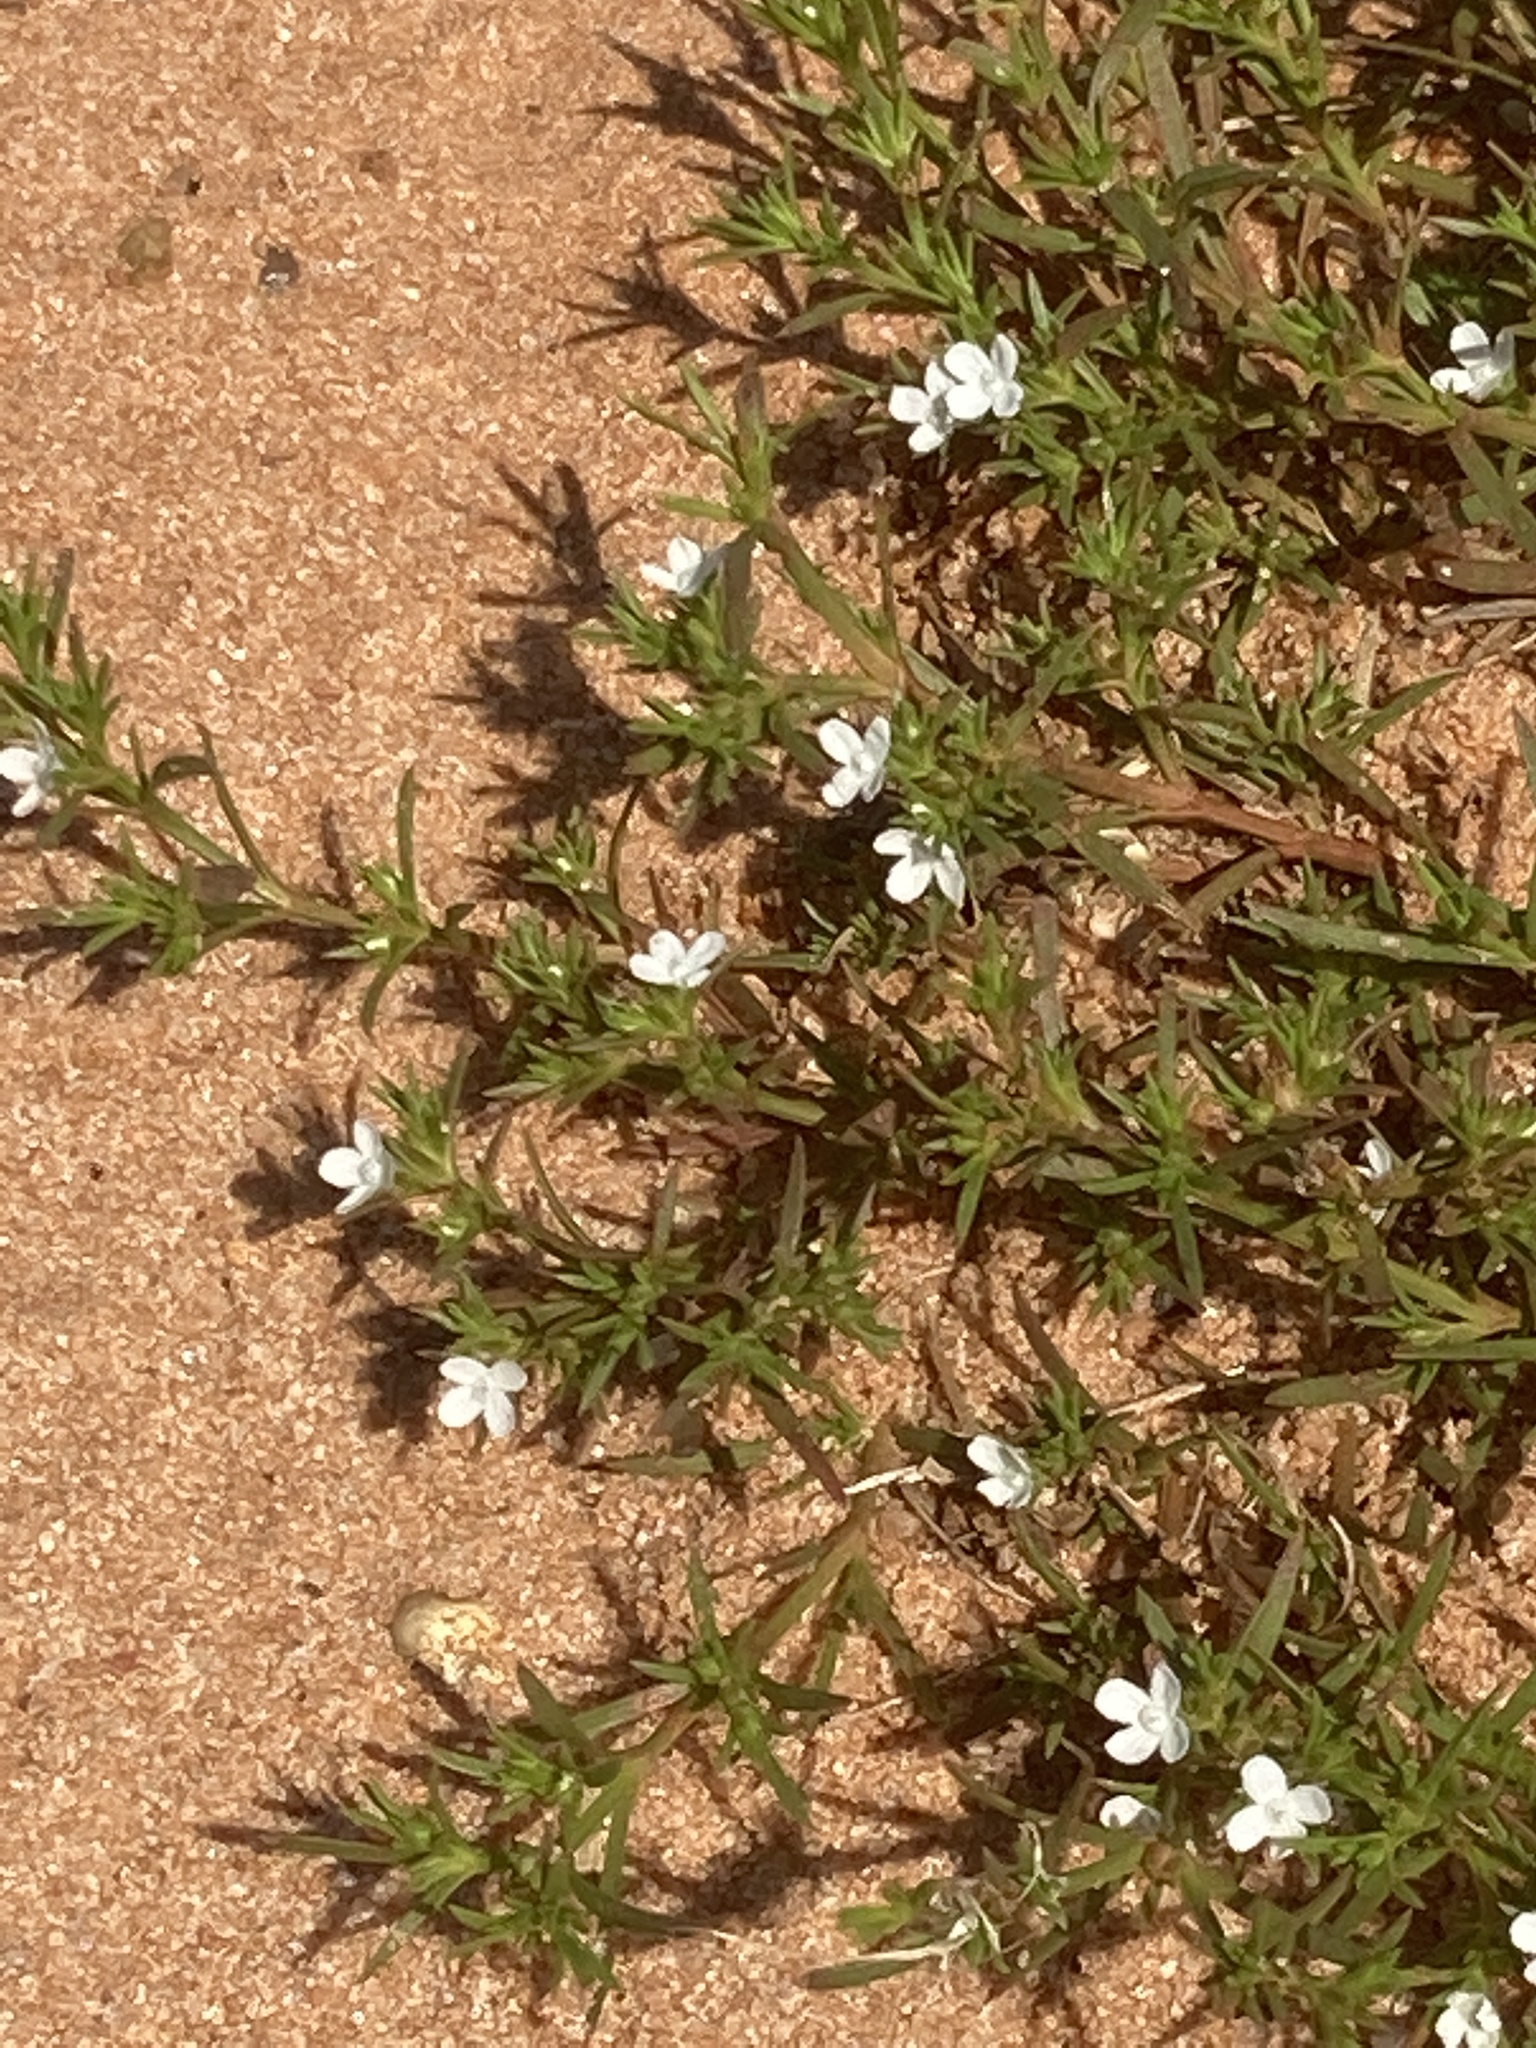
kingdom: Plantae
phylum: Tracheophyta
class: Magnoliopsida
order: Lamiales
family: Tetrachondraceae
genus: Polypremum
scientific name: Polypremum procumbens
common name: Juniper-leaf
